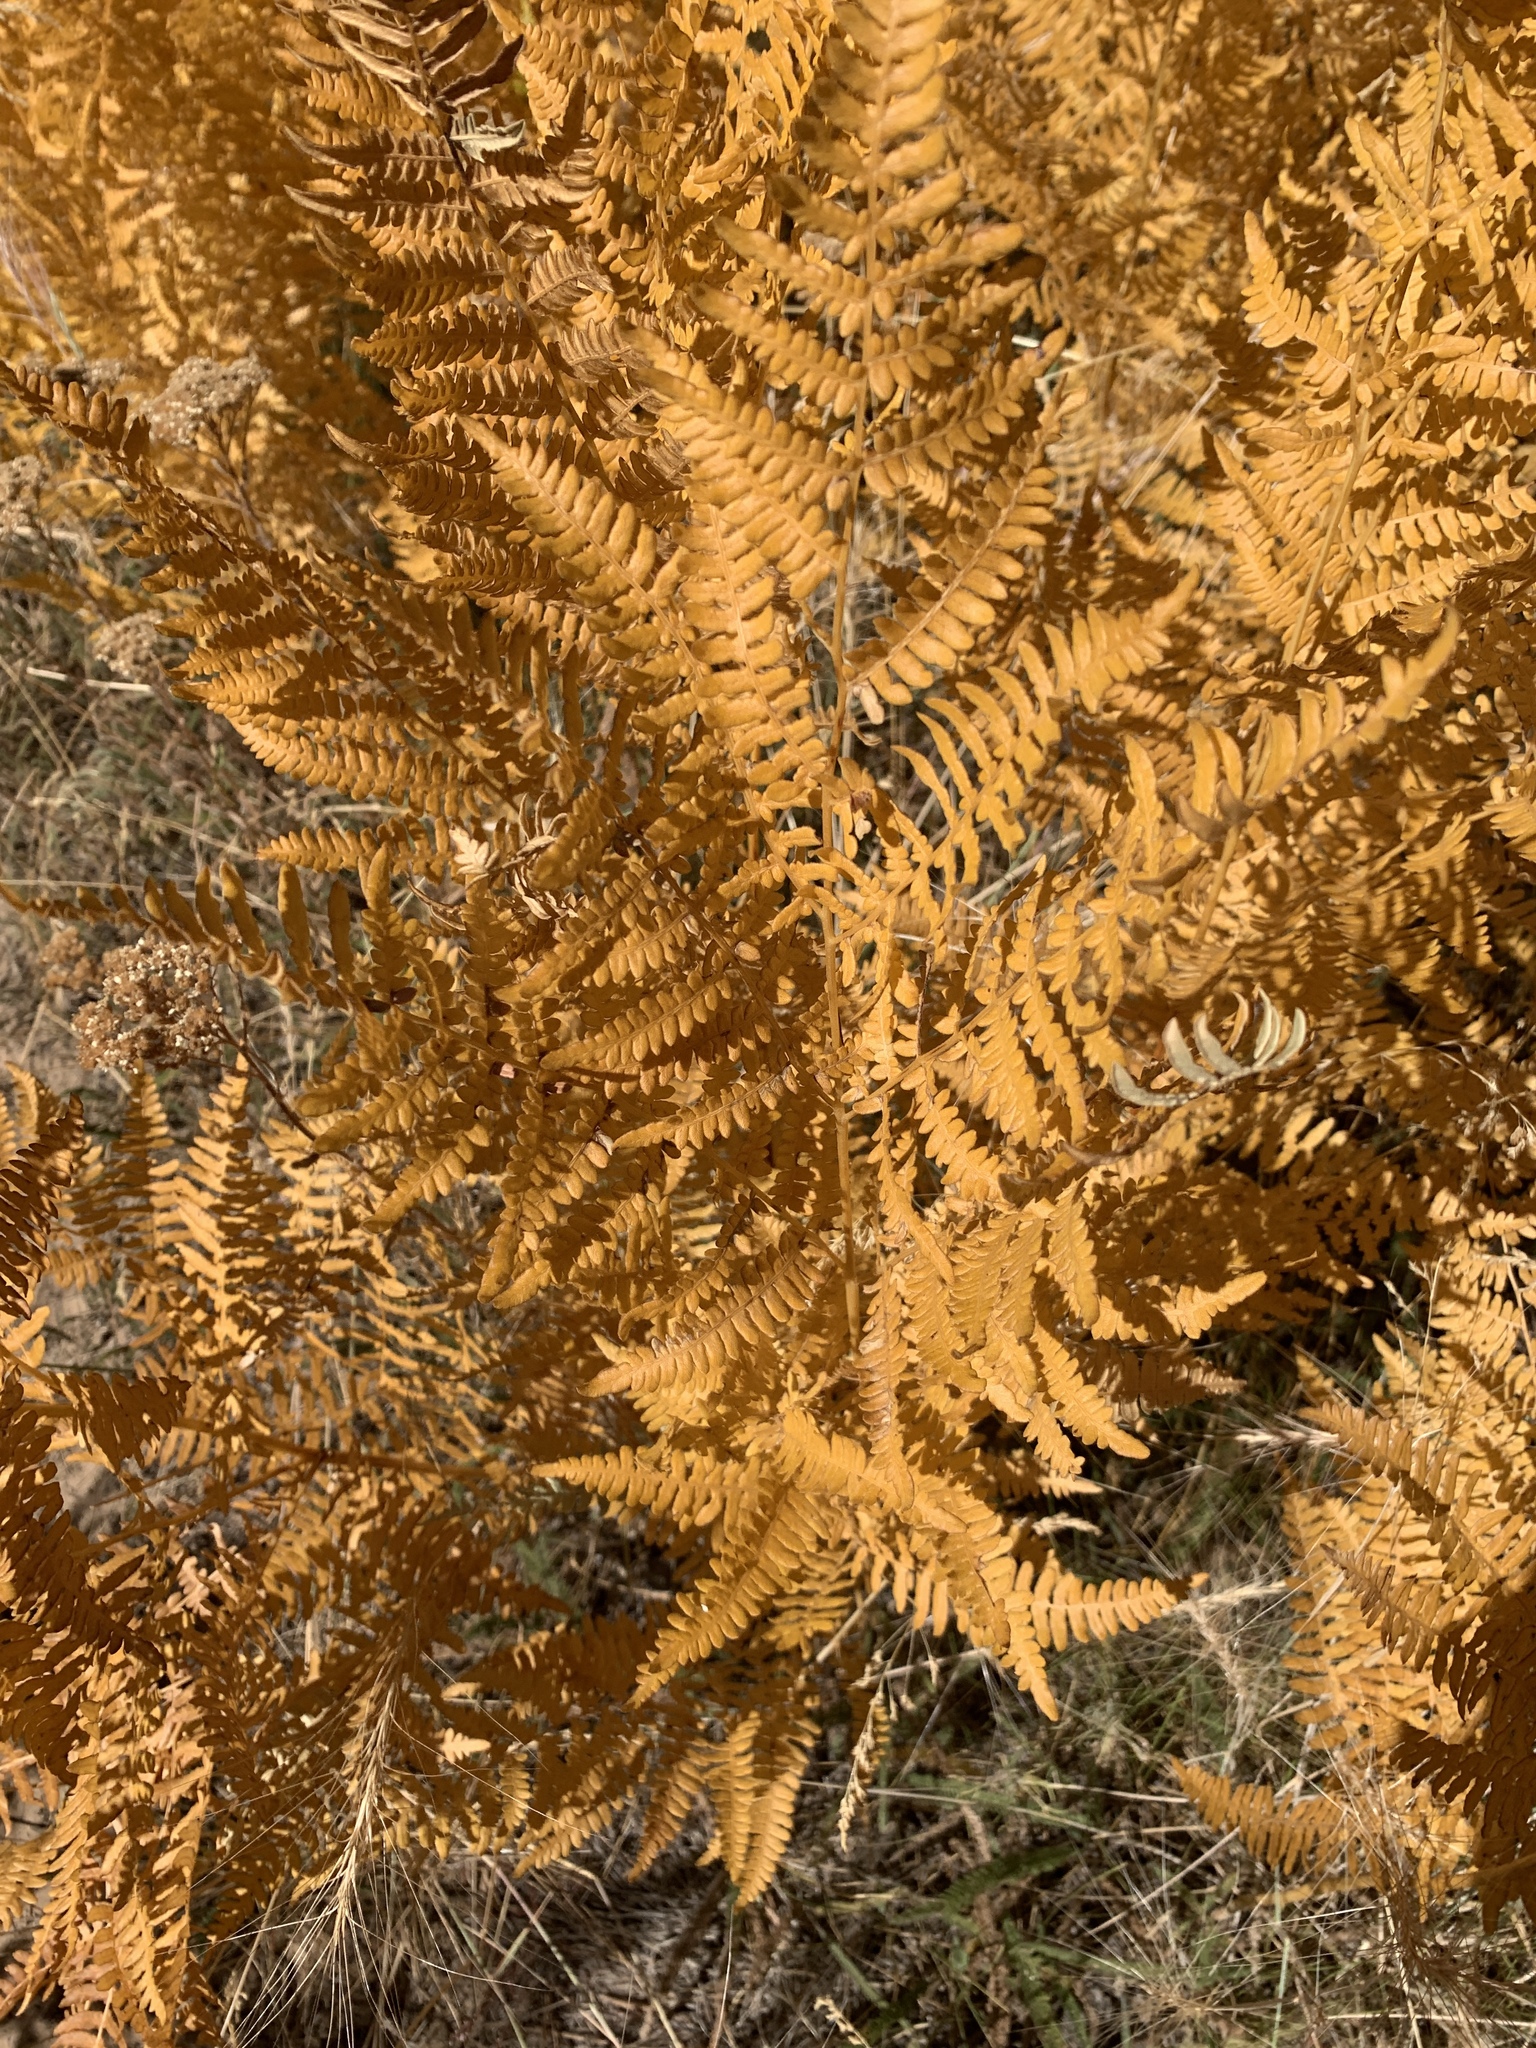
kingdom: Plantae
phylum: Tracheophyta
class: Polypodiopsida
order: Polypodiales
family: Dennstaedtiaceae
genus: Pteridium
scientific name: Pteridium aquilinum
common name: Bracken
